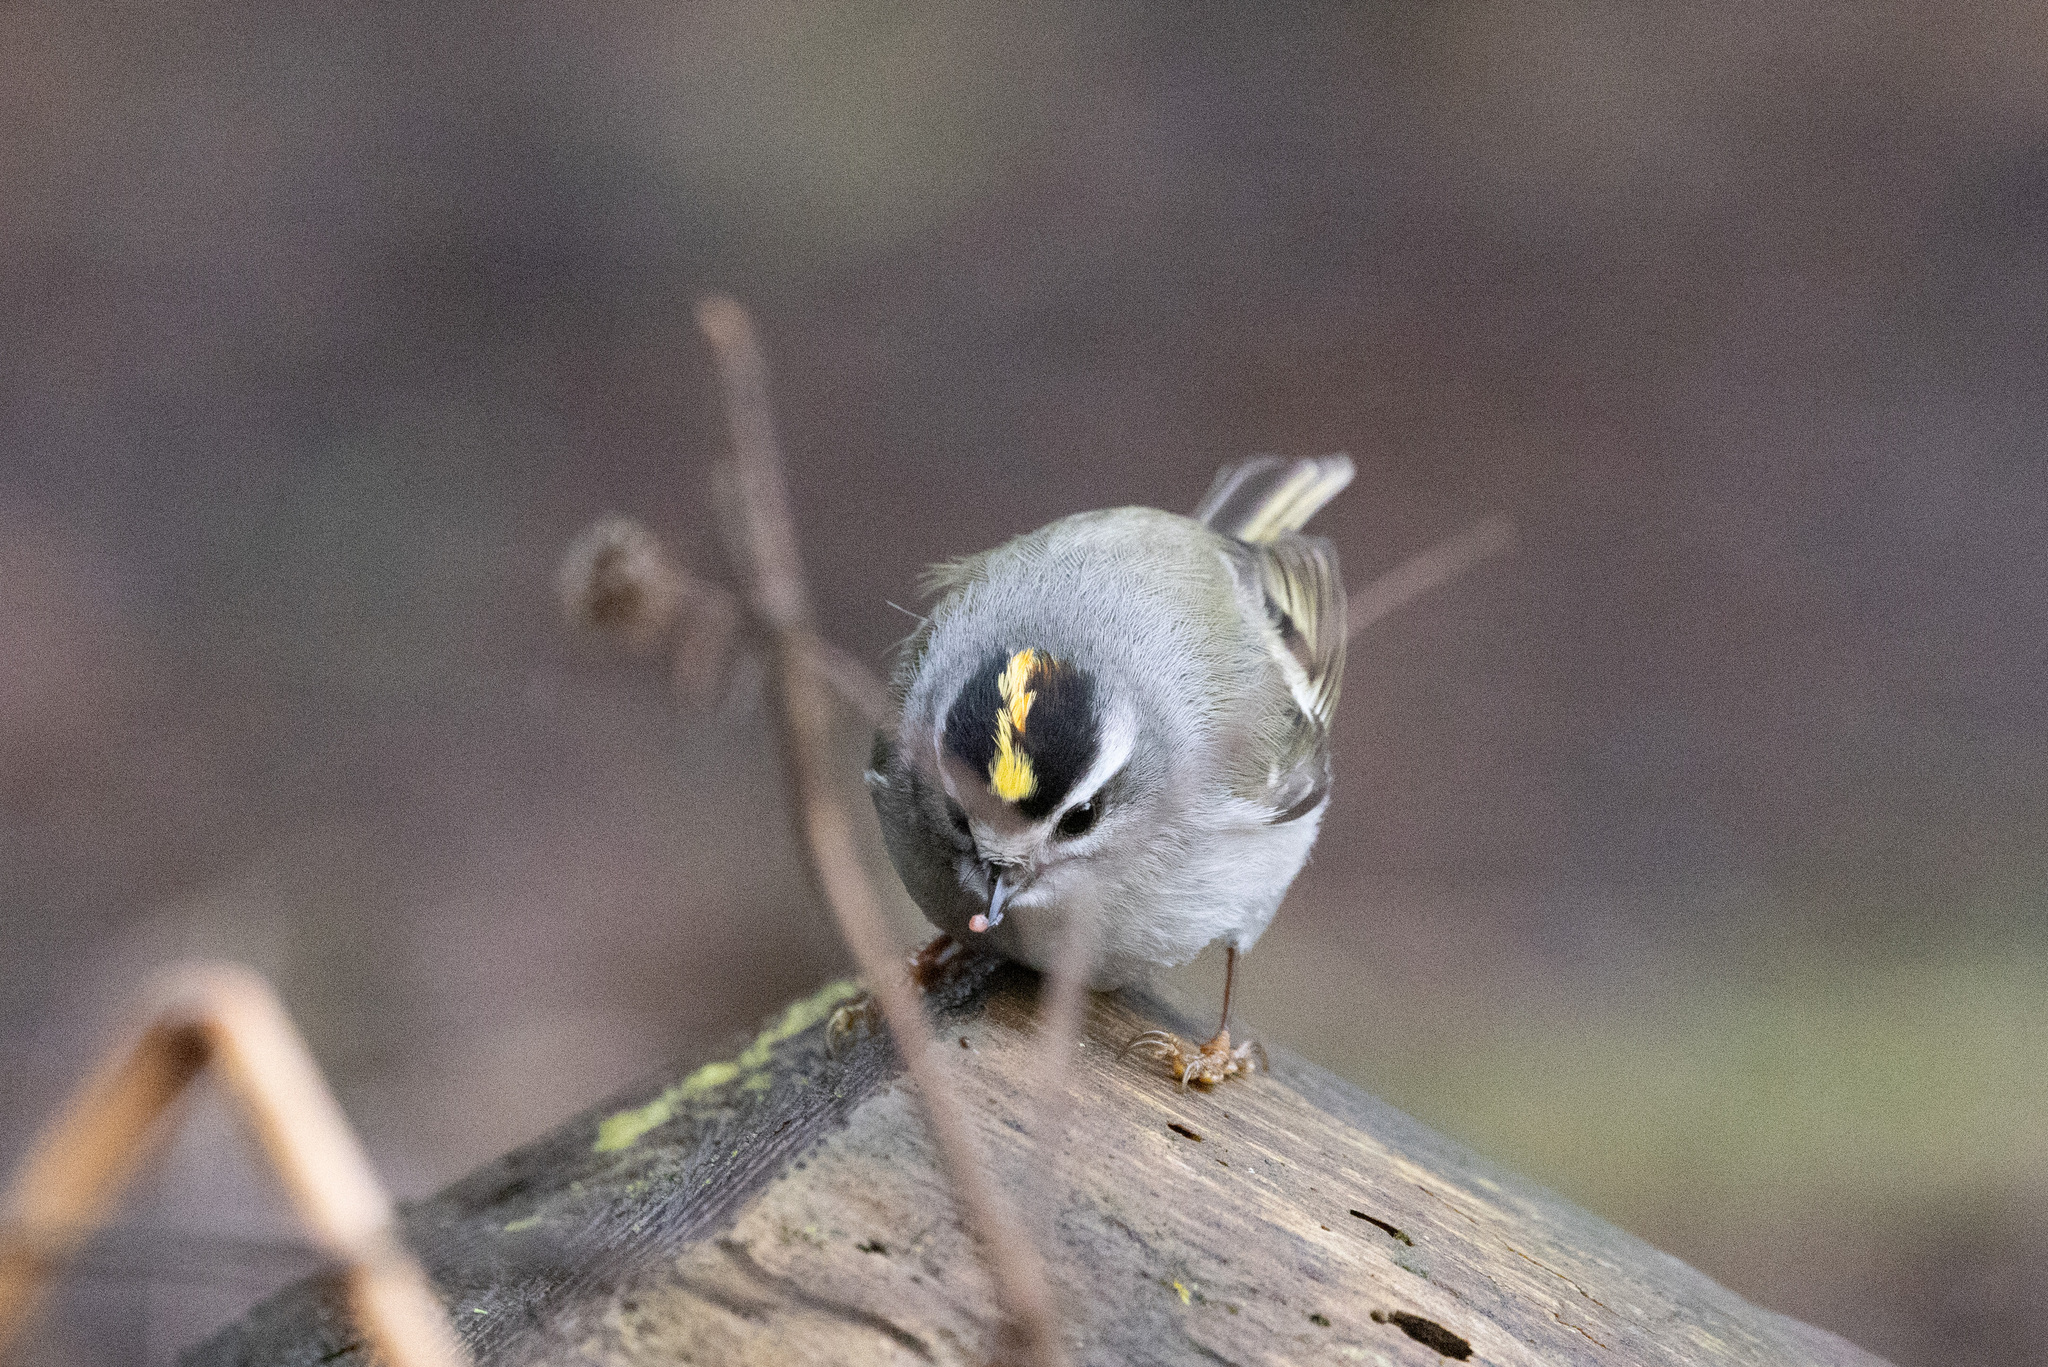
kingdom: Animalia
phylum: Chordata
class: Aves
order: Passeriformes
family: Regulidae
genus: Regulus
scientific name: Regulus satrapa
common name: Golden-crowned kinglet
